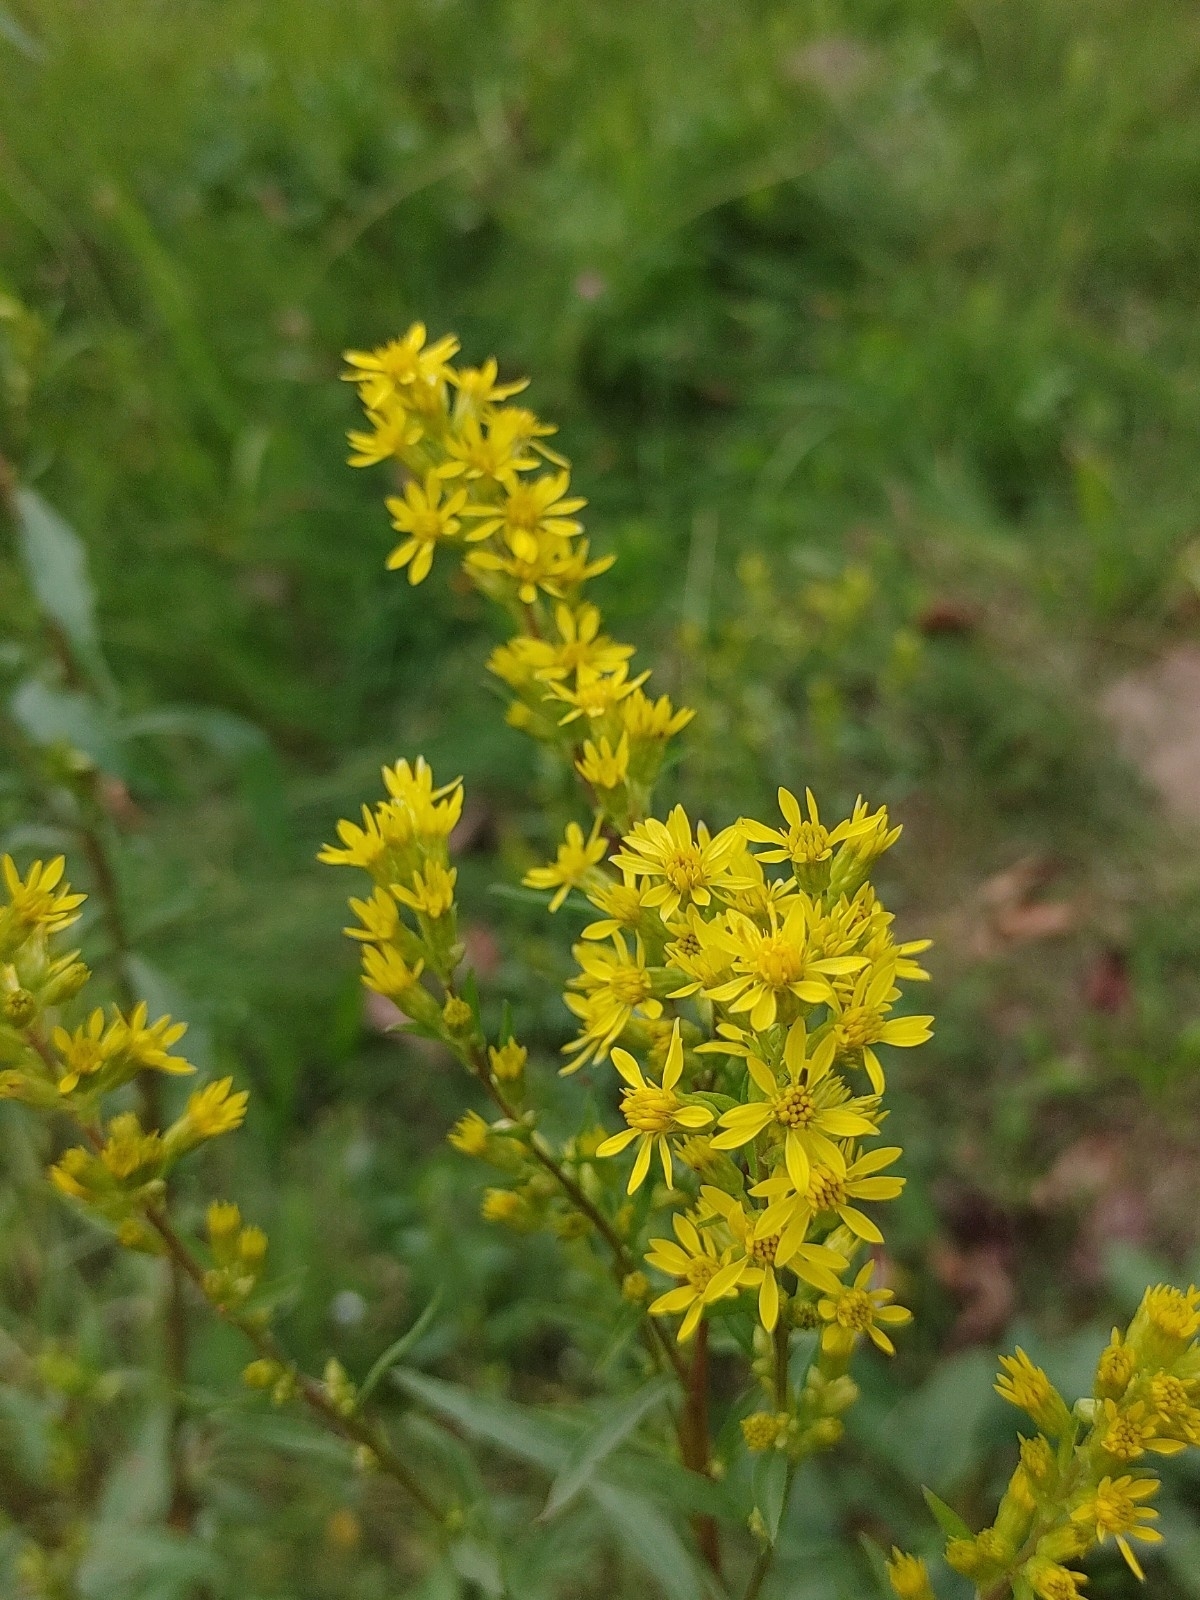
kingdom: Plantae
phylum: Tracheophyta
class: Magnoliopsida
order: Asterales
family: Asteraceae
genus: Solidago
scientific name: Solidago virgaurea
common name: Goldenrod
